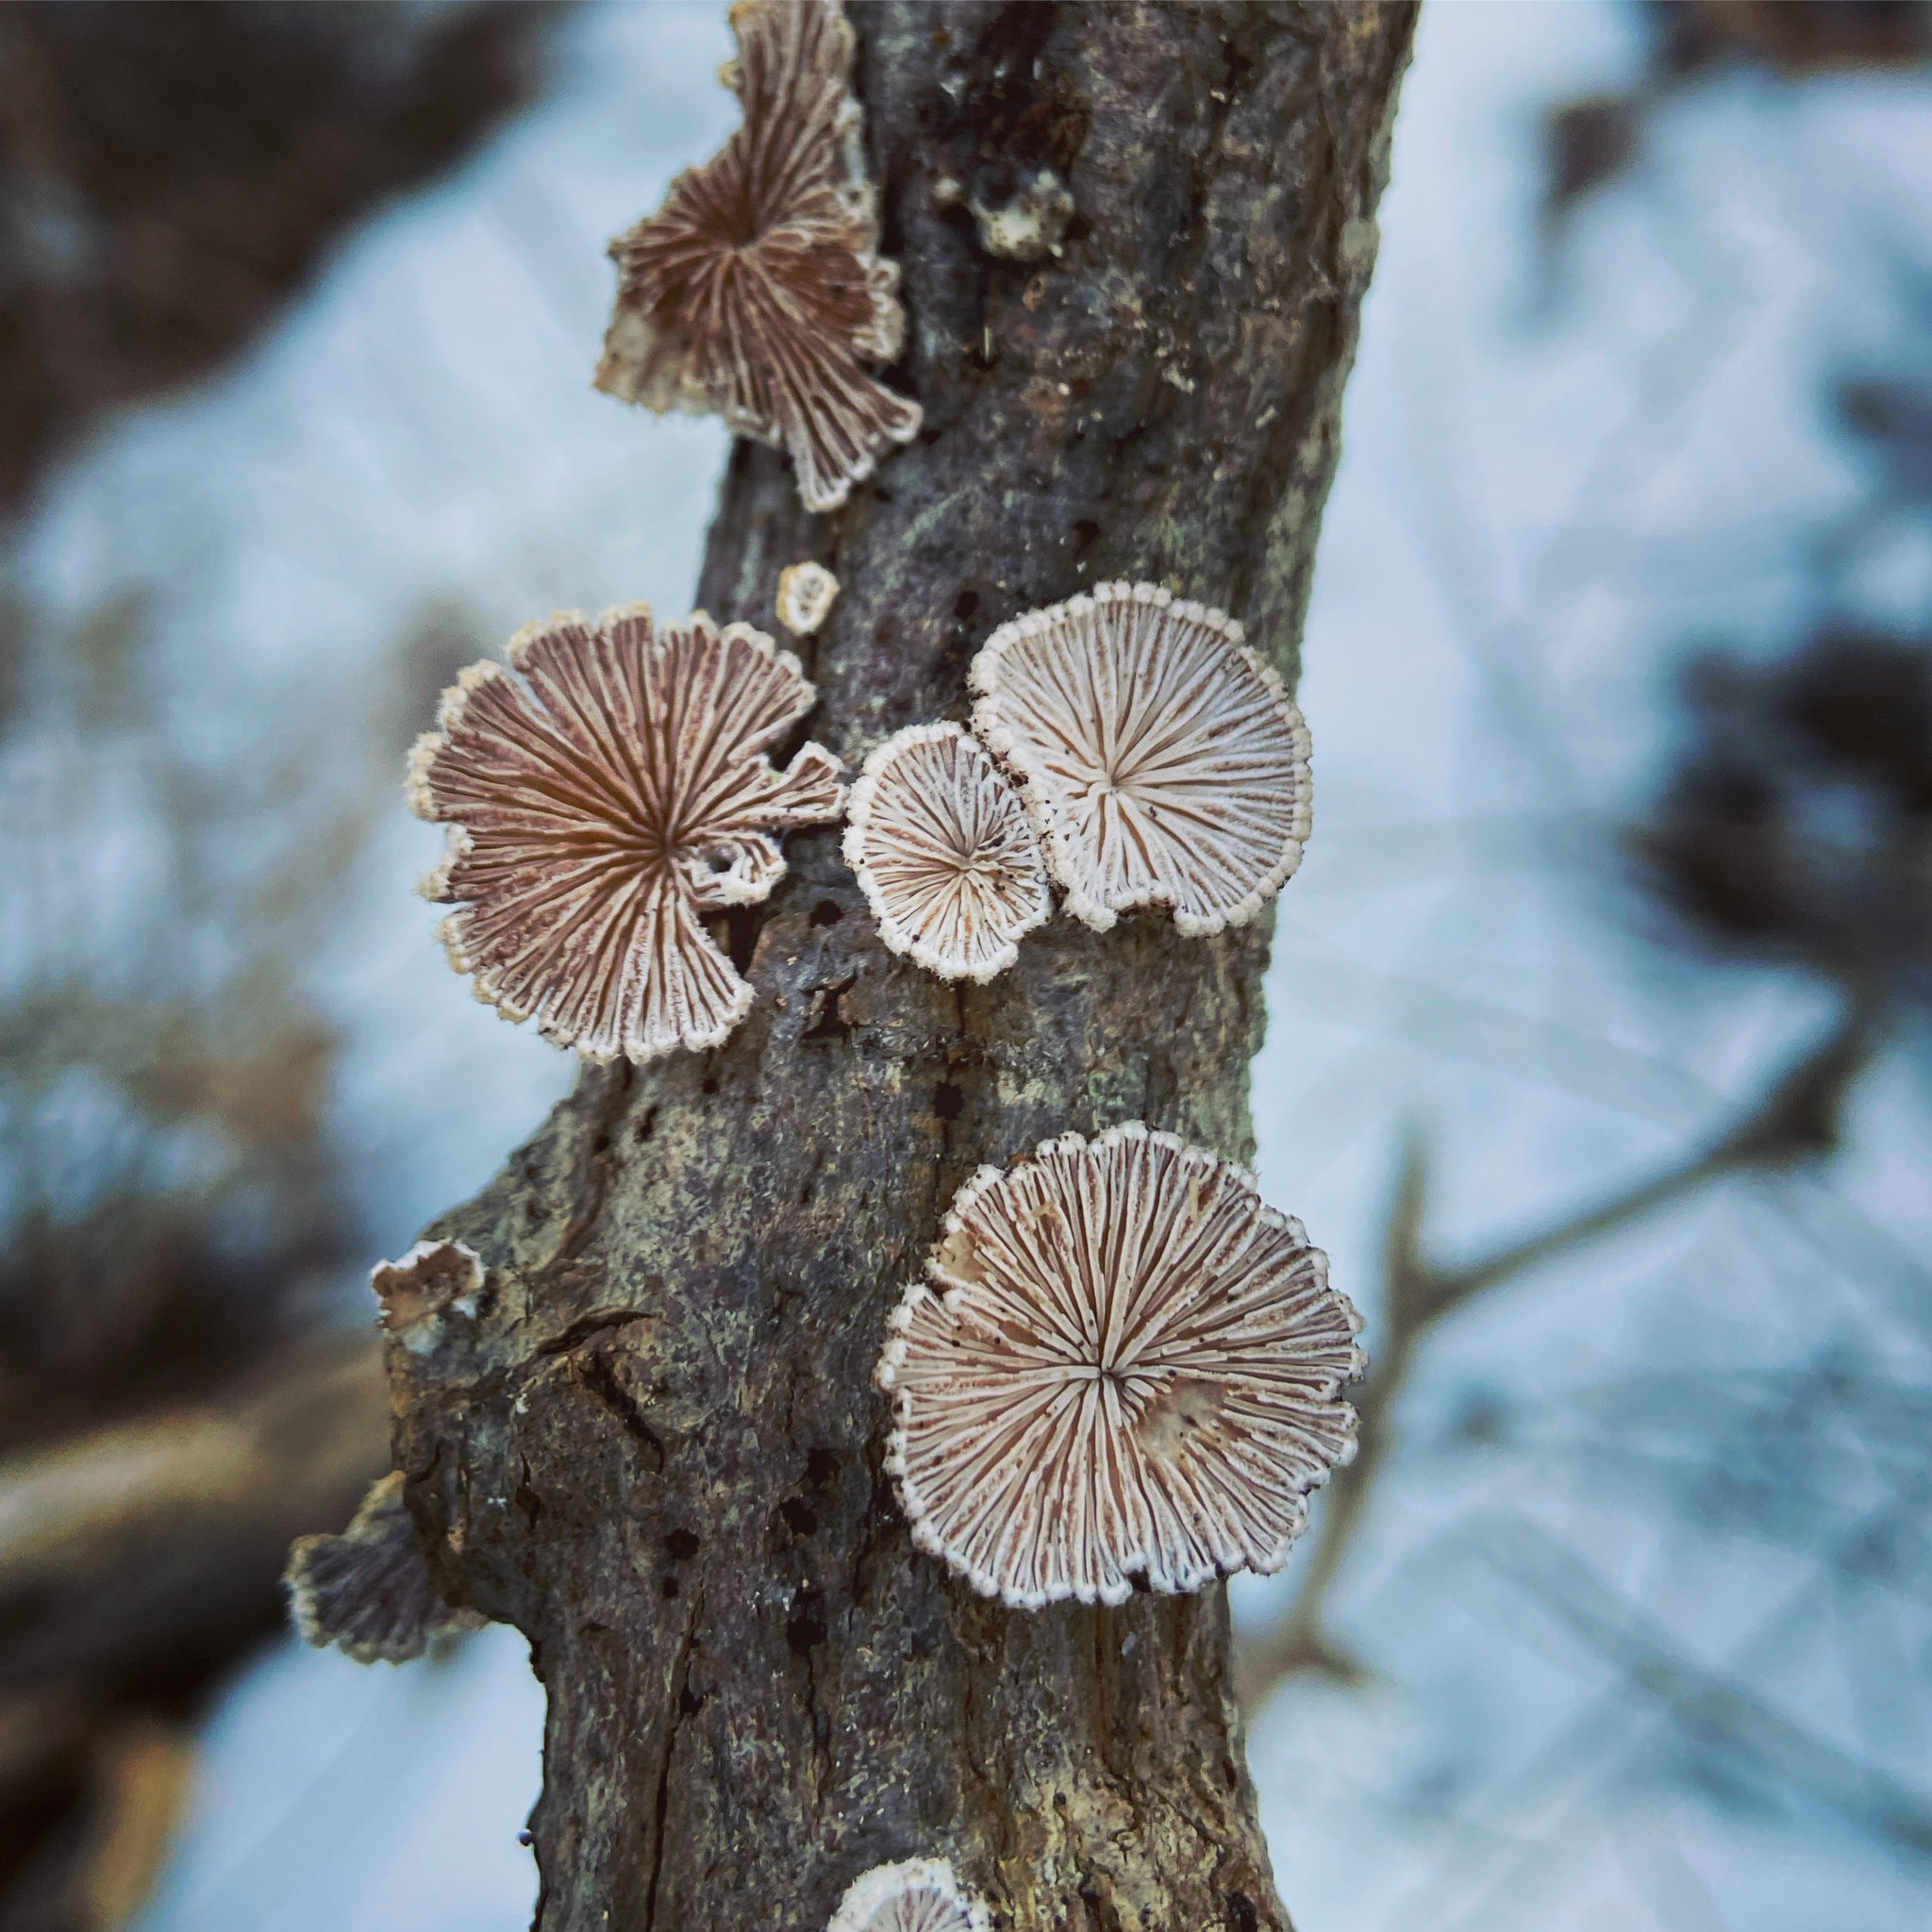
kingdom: Fungi
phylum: Basidiomycota
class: Agaricomycetes
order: Agaricales
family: Schizophyllaceae
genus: Schizophyllum
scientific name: Schizophyllum commune
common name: Common porecrust
